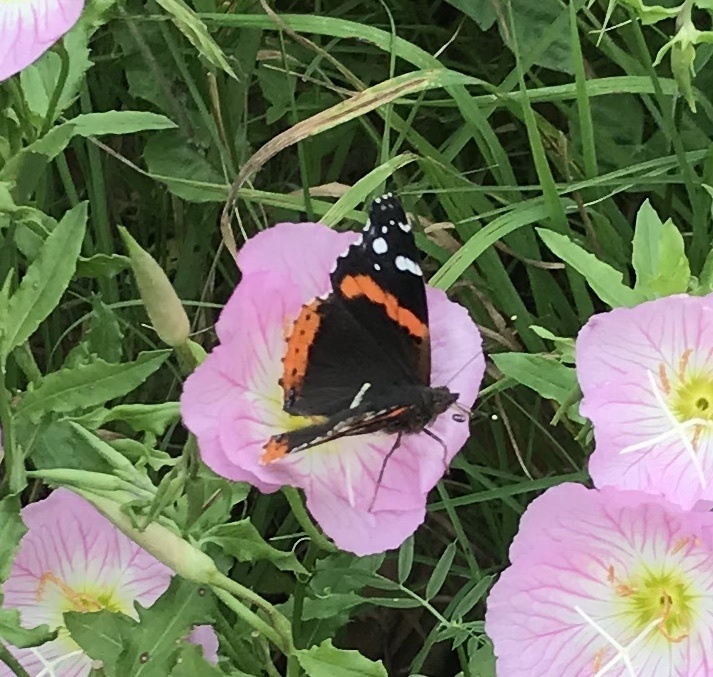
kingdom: Animalia
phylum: Arthropoda
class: Insecta
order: Lepidoptera
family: Nymphalidae
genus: Vanessa
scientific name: Vanessa atalanta
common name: Red admiral
